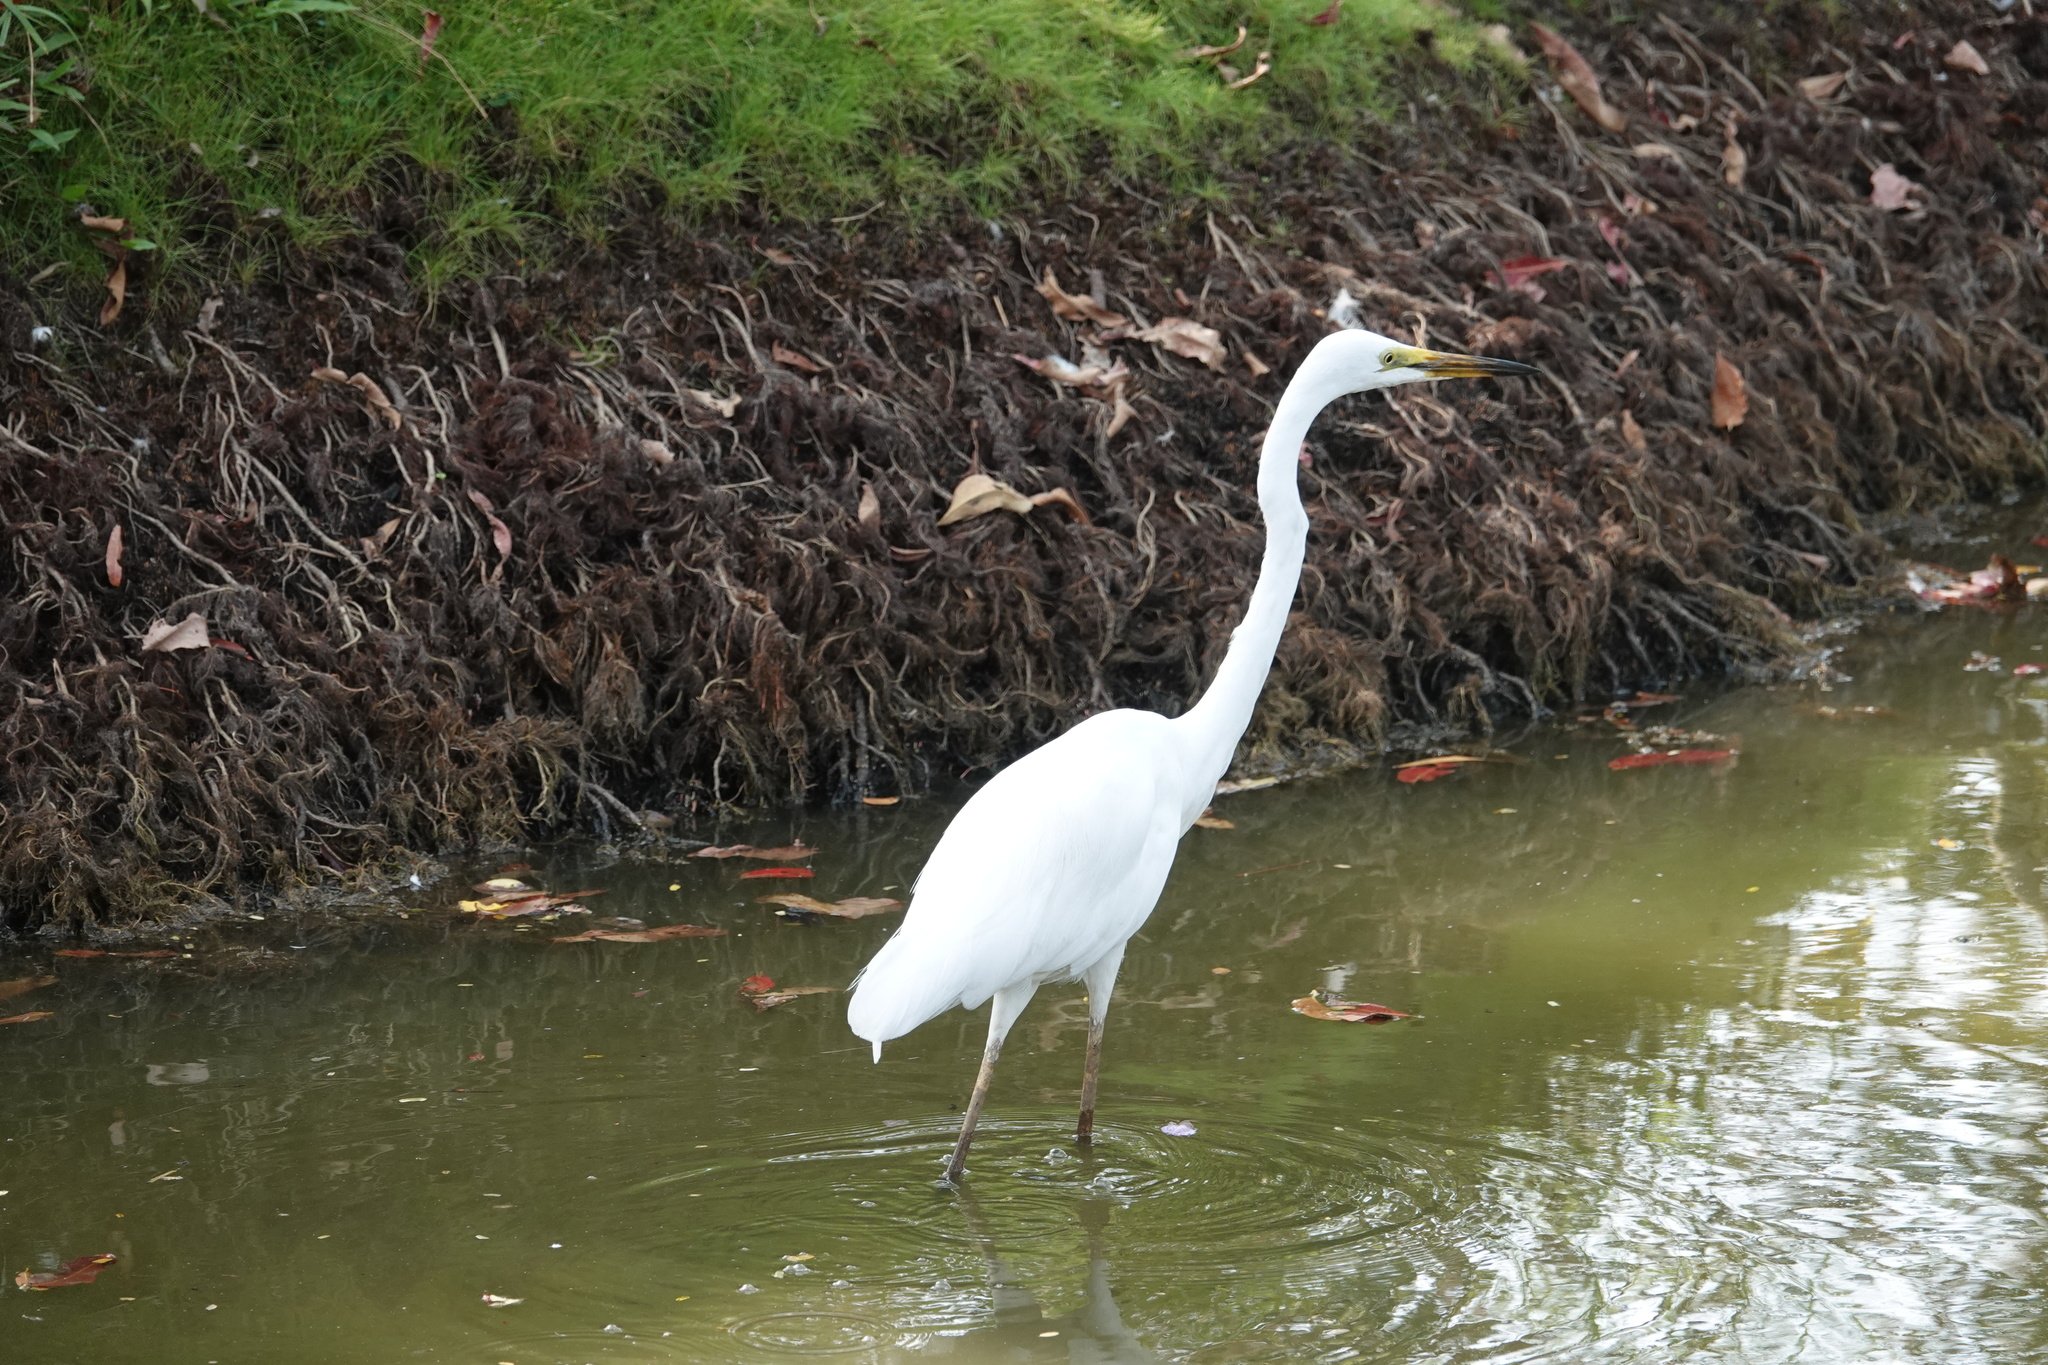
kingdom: Animalia
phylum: Chordata
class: Aves
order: Pelecaniformes
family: Ardeidae
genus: Ardea
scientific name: Ardea alba
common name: Great egret
